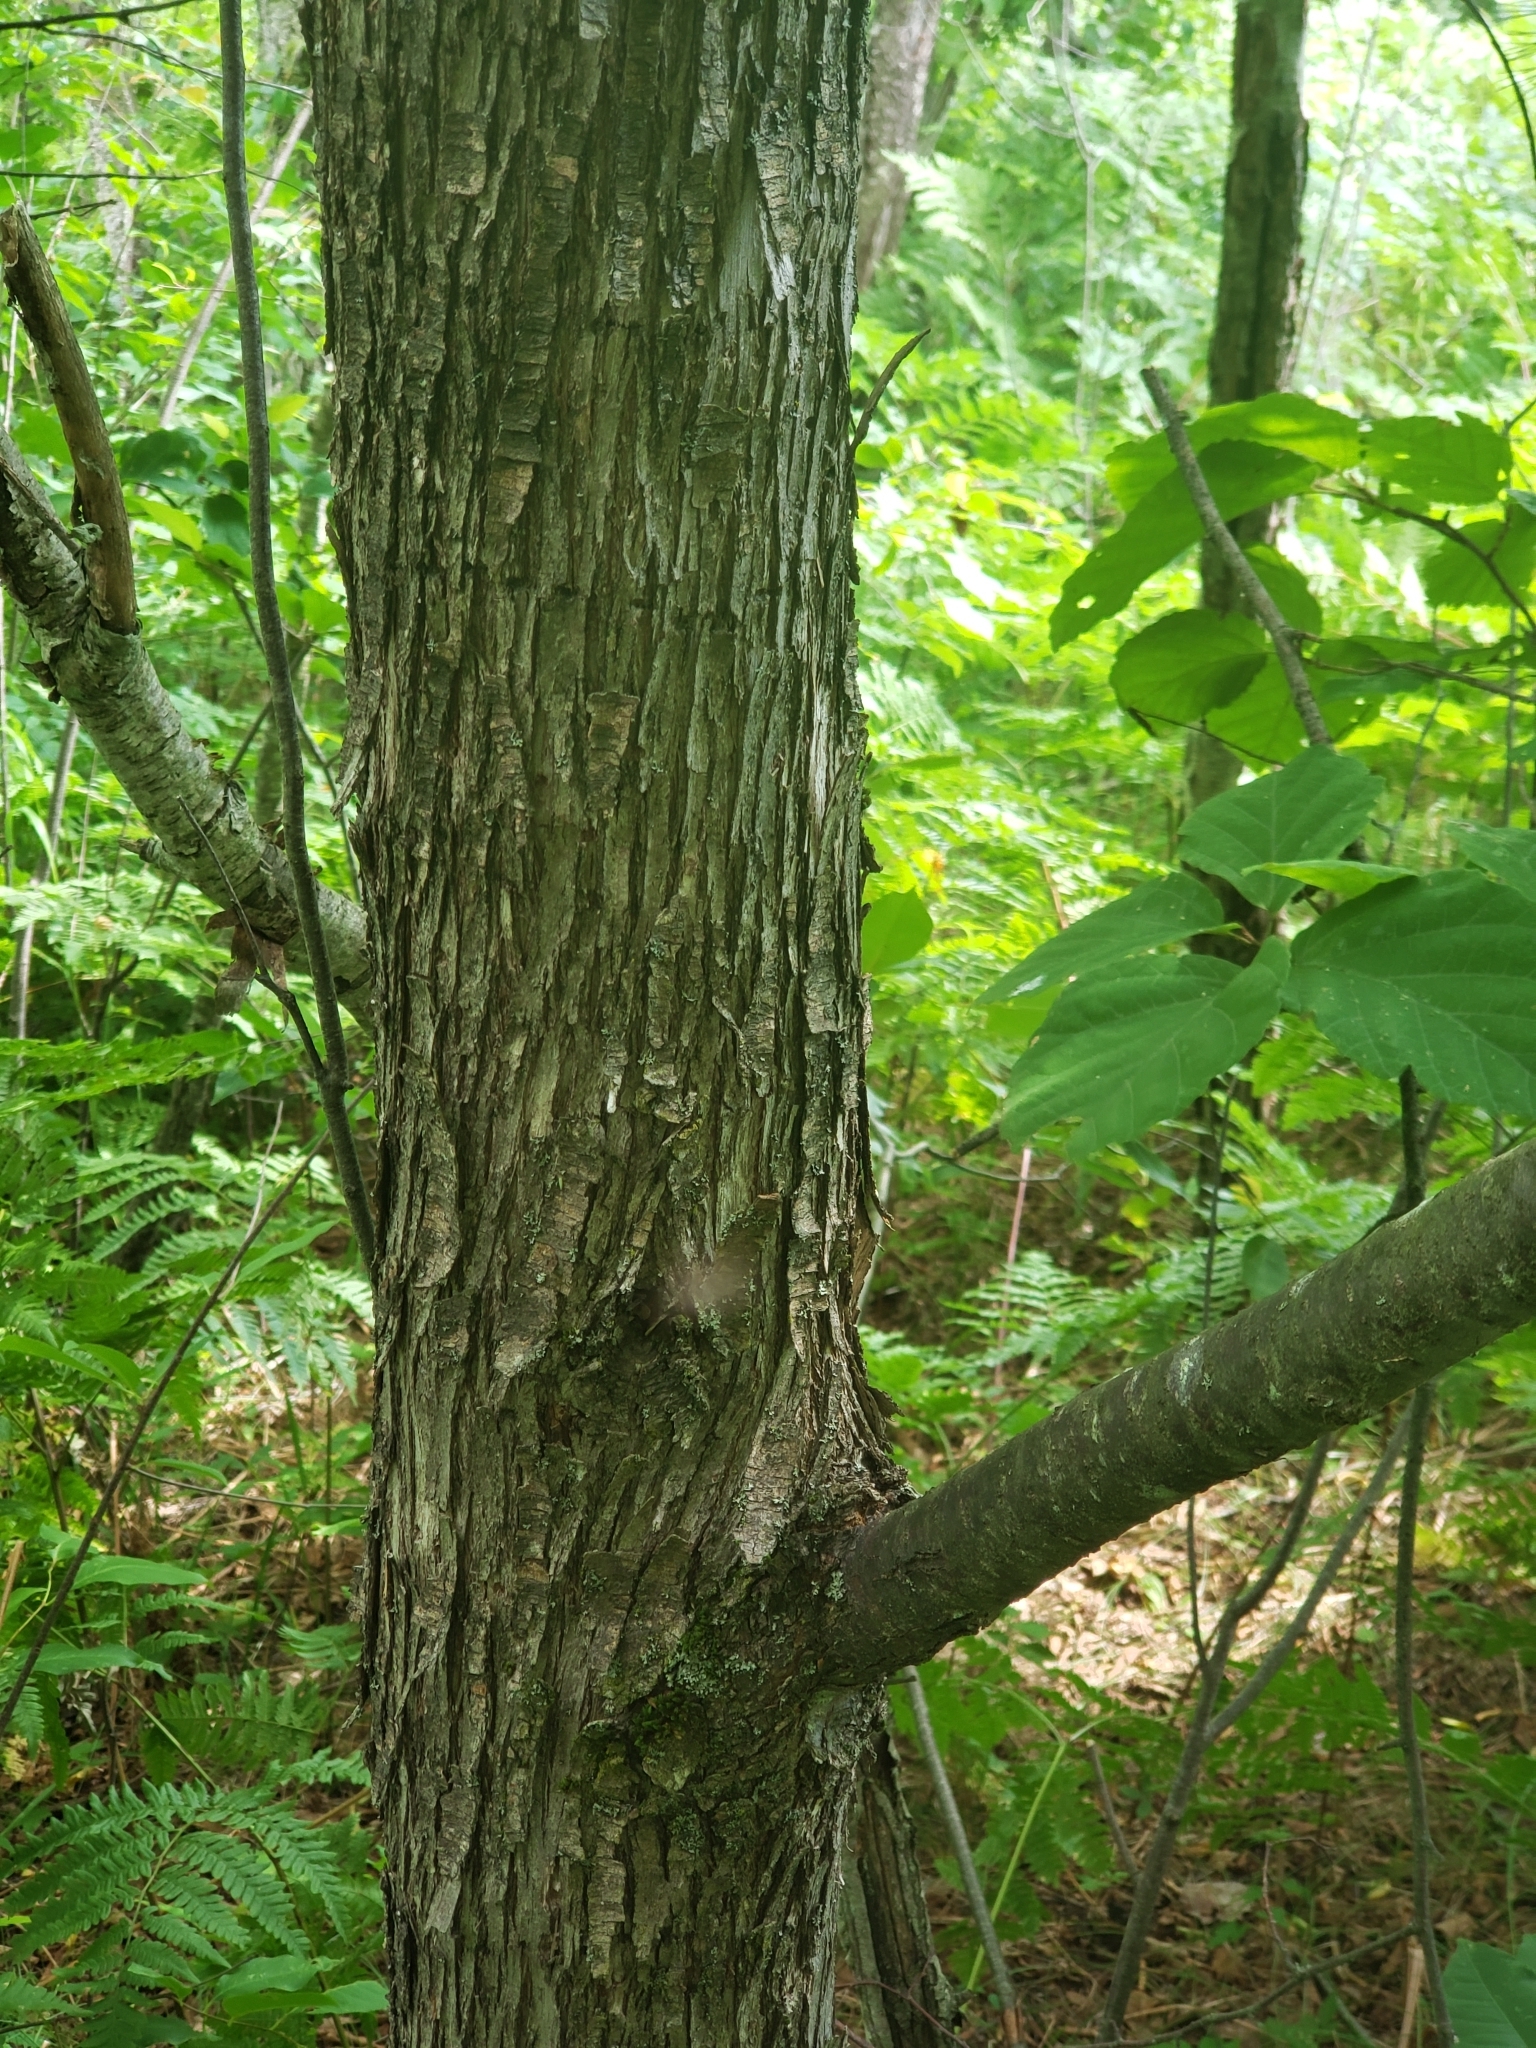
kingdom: Plantae
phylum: Tracheophyta
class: Magnoliopsida
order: Fagales
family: Betulaceae
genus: Ostrya
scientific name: Ostrya virginiana
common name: Ironwood
